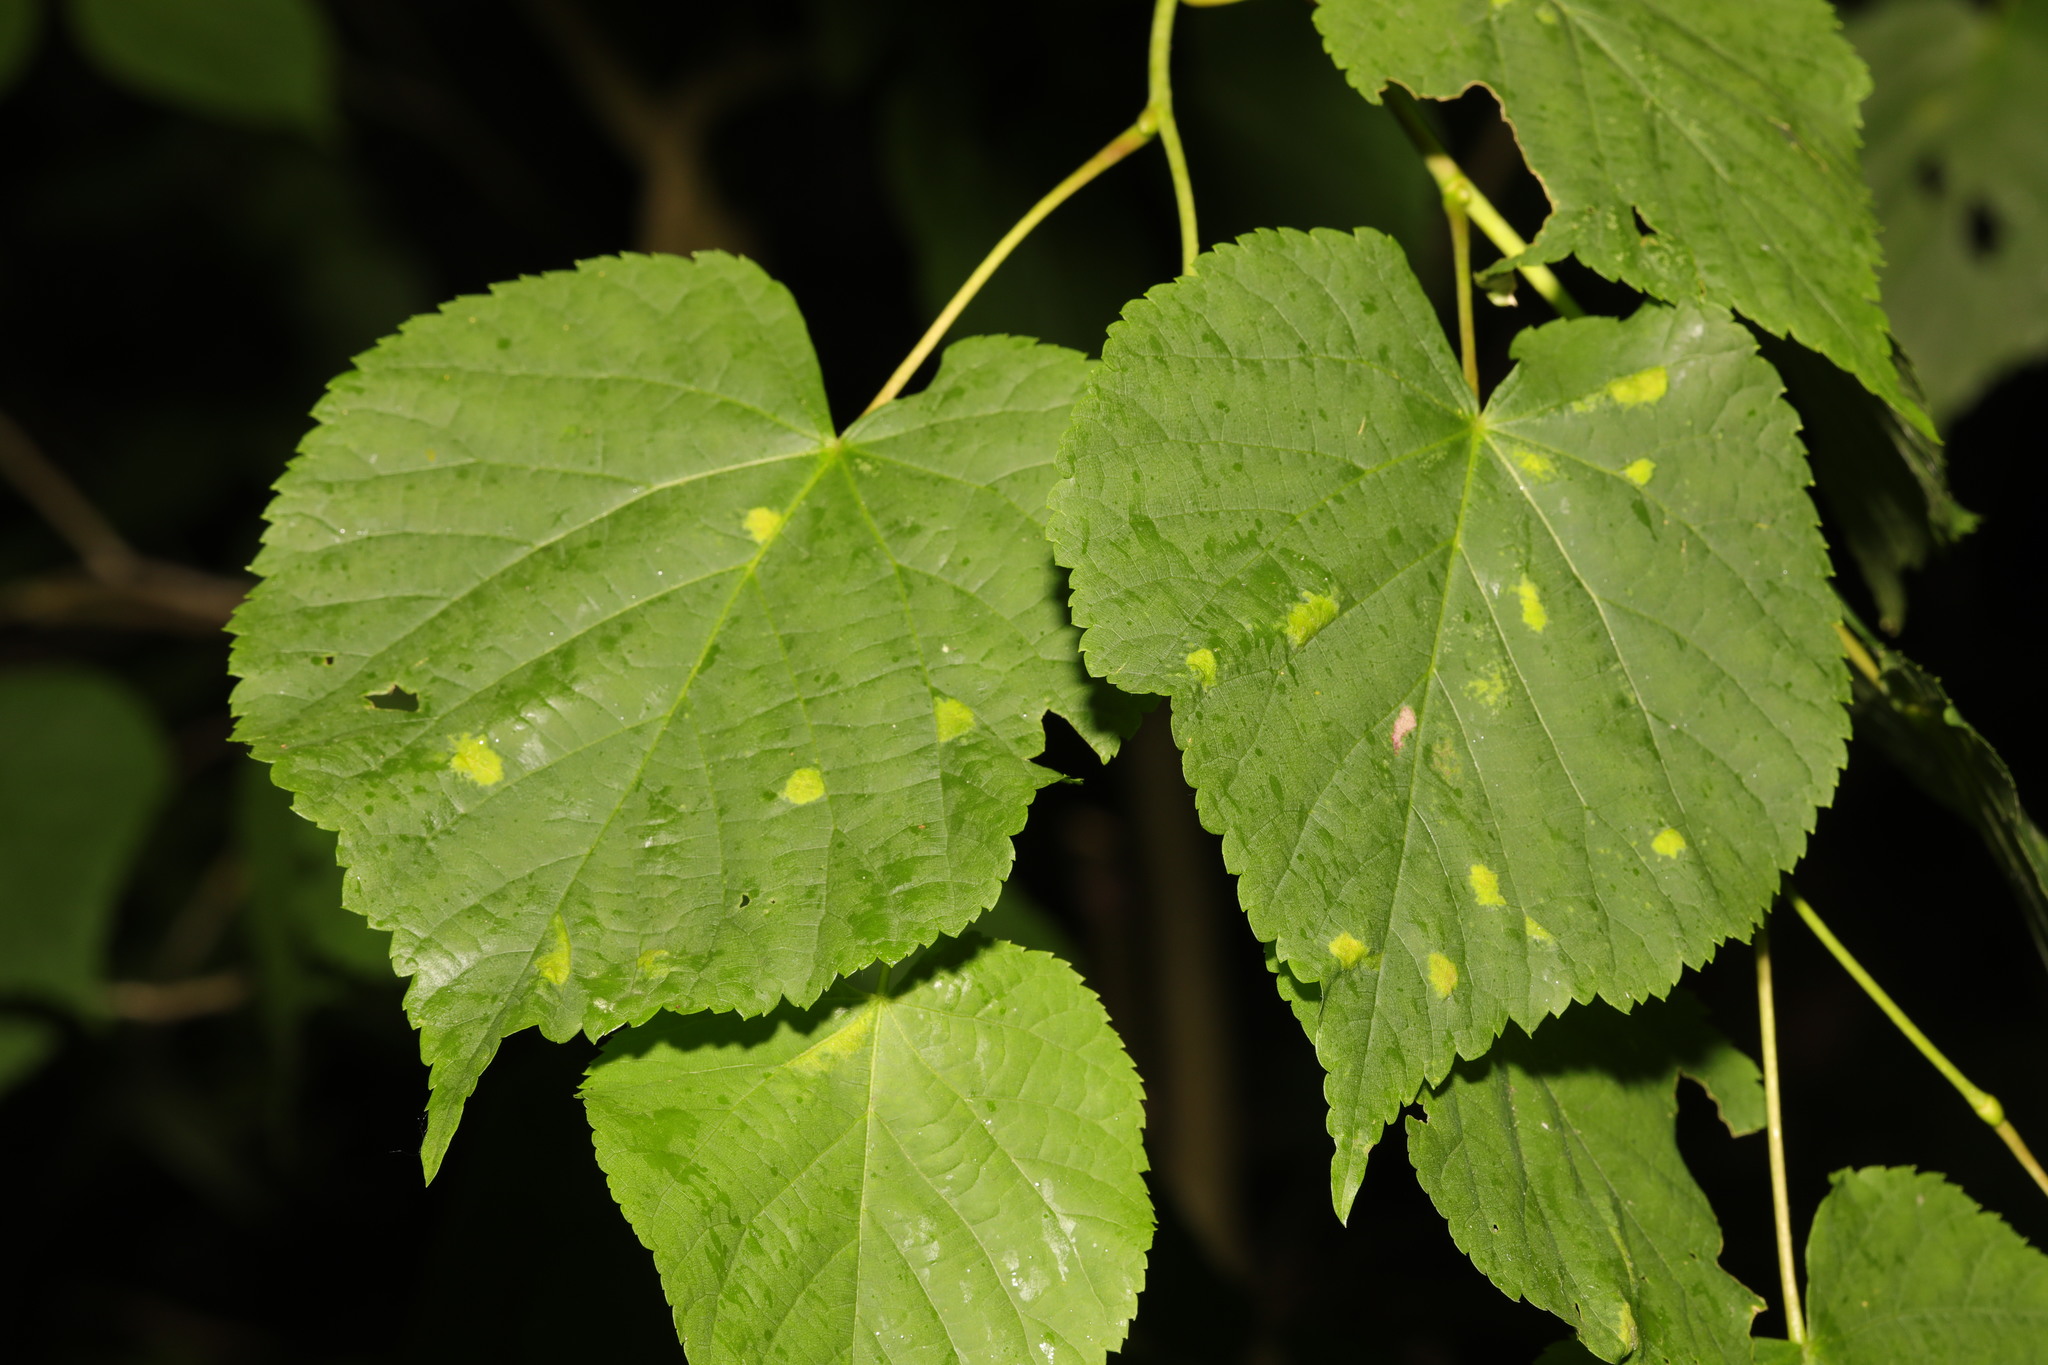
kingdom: Animalia
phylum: Arthropoda
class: Arachnida
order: Trombidiformes
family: Eriophyidae
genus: Eriophyes
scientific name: Eriophyes leiosoma
